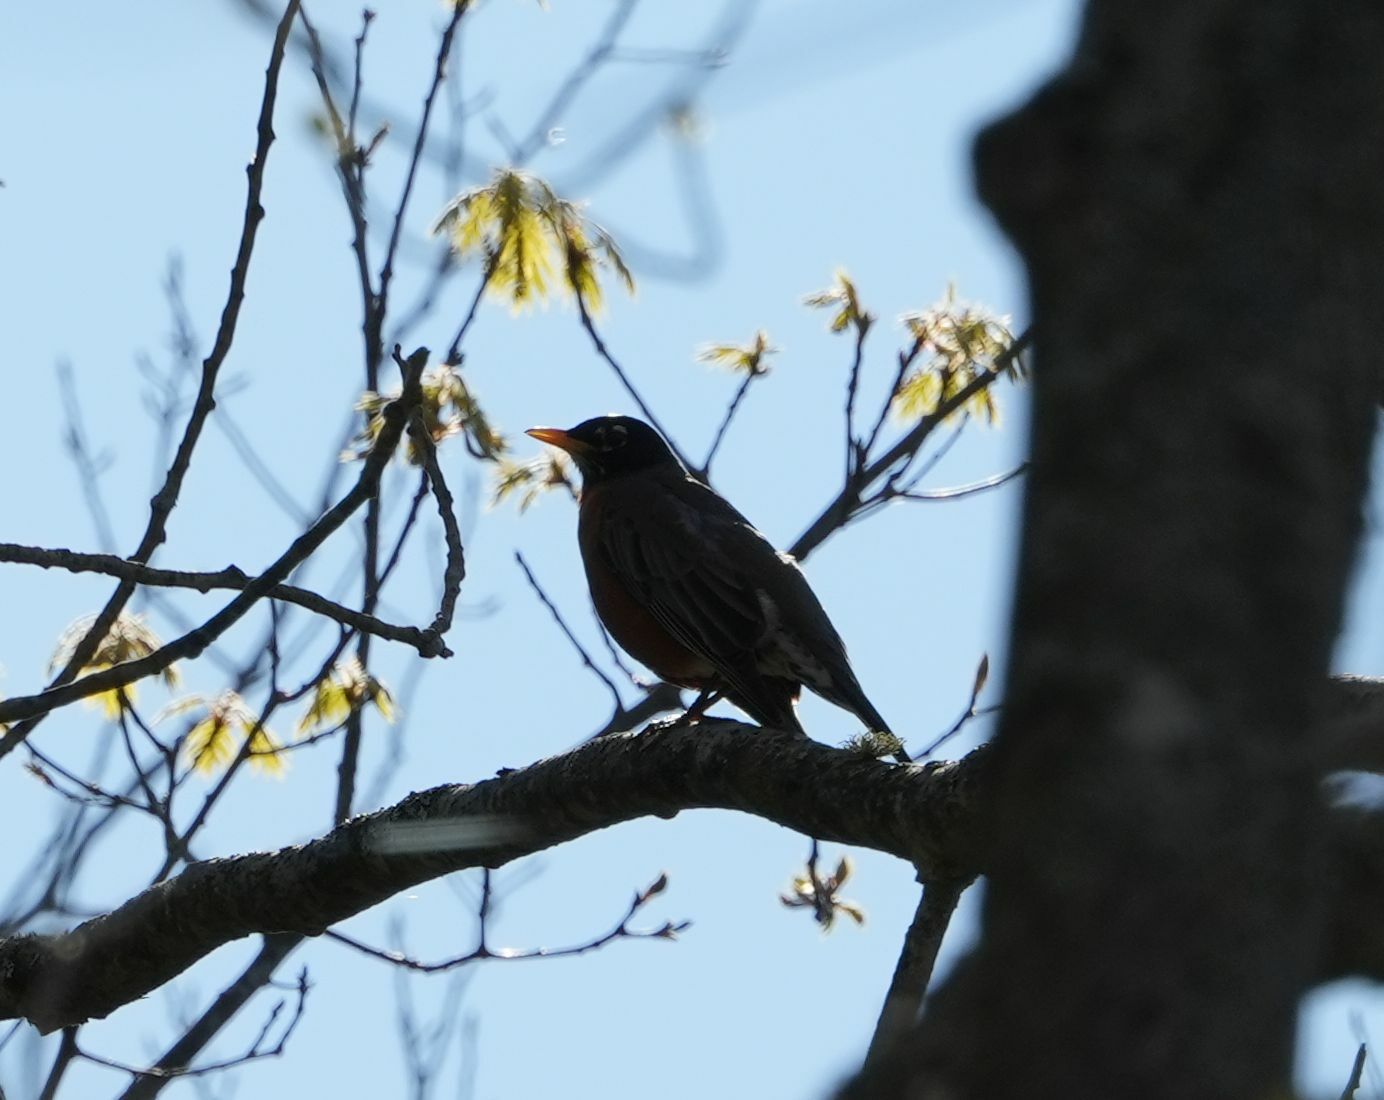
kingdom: Animalia
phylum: Chordata
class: Aves
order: Passeriformes
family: Turdidae
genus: Turdus
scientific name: Turdus migratorius
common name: American robin
